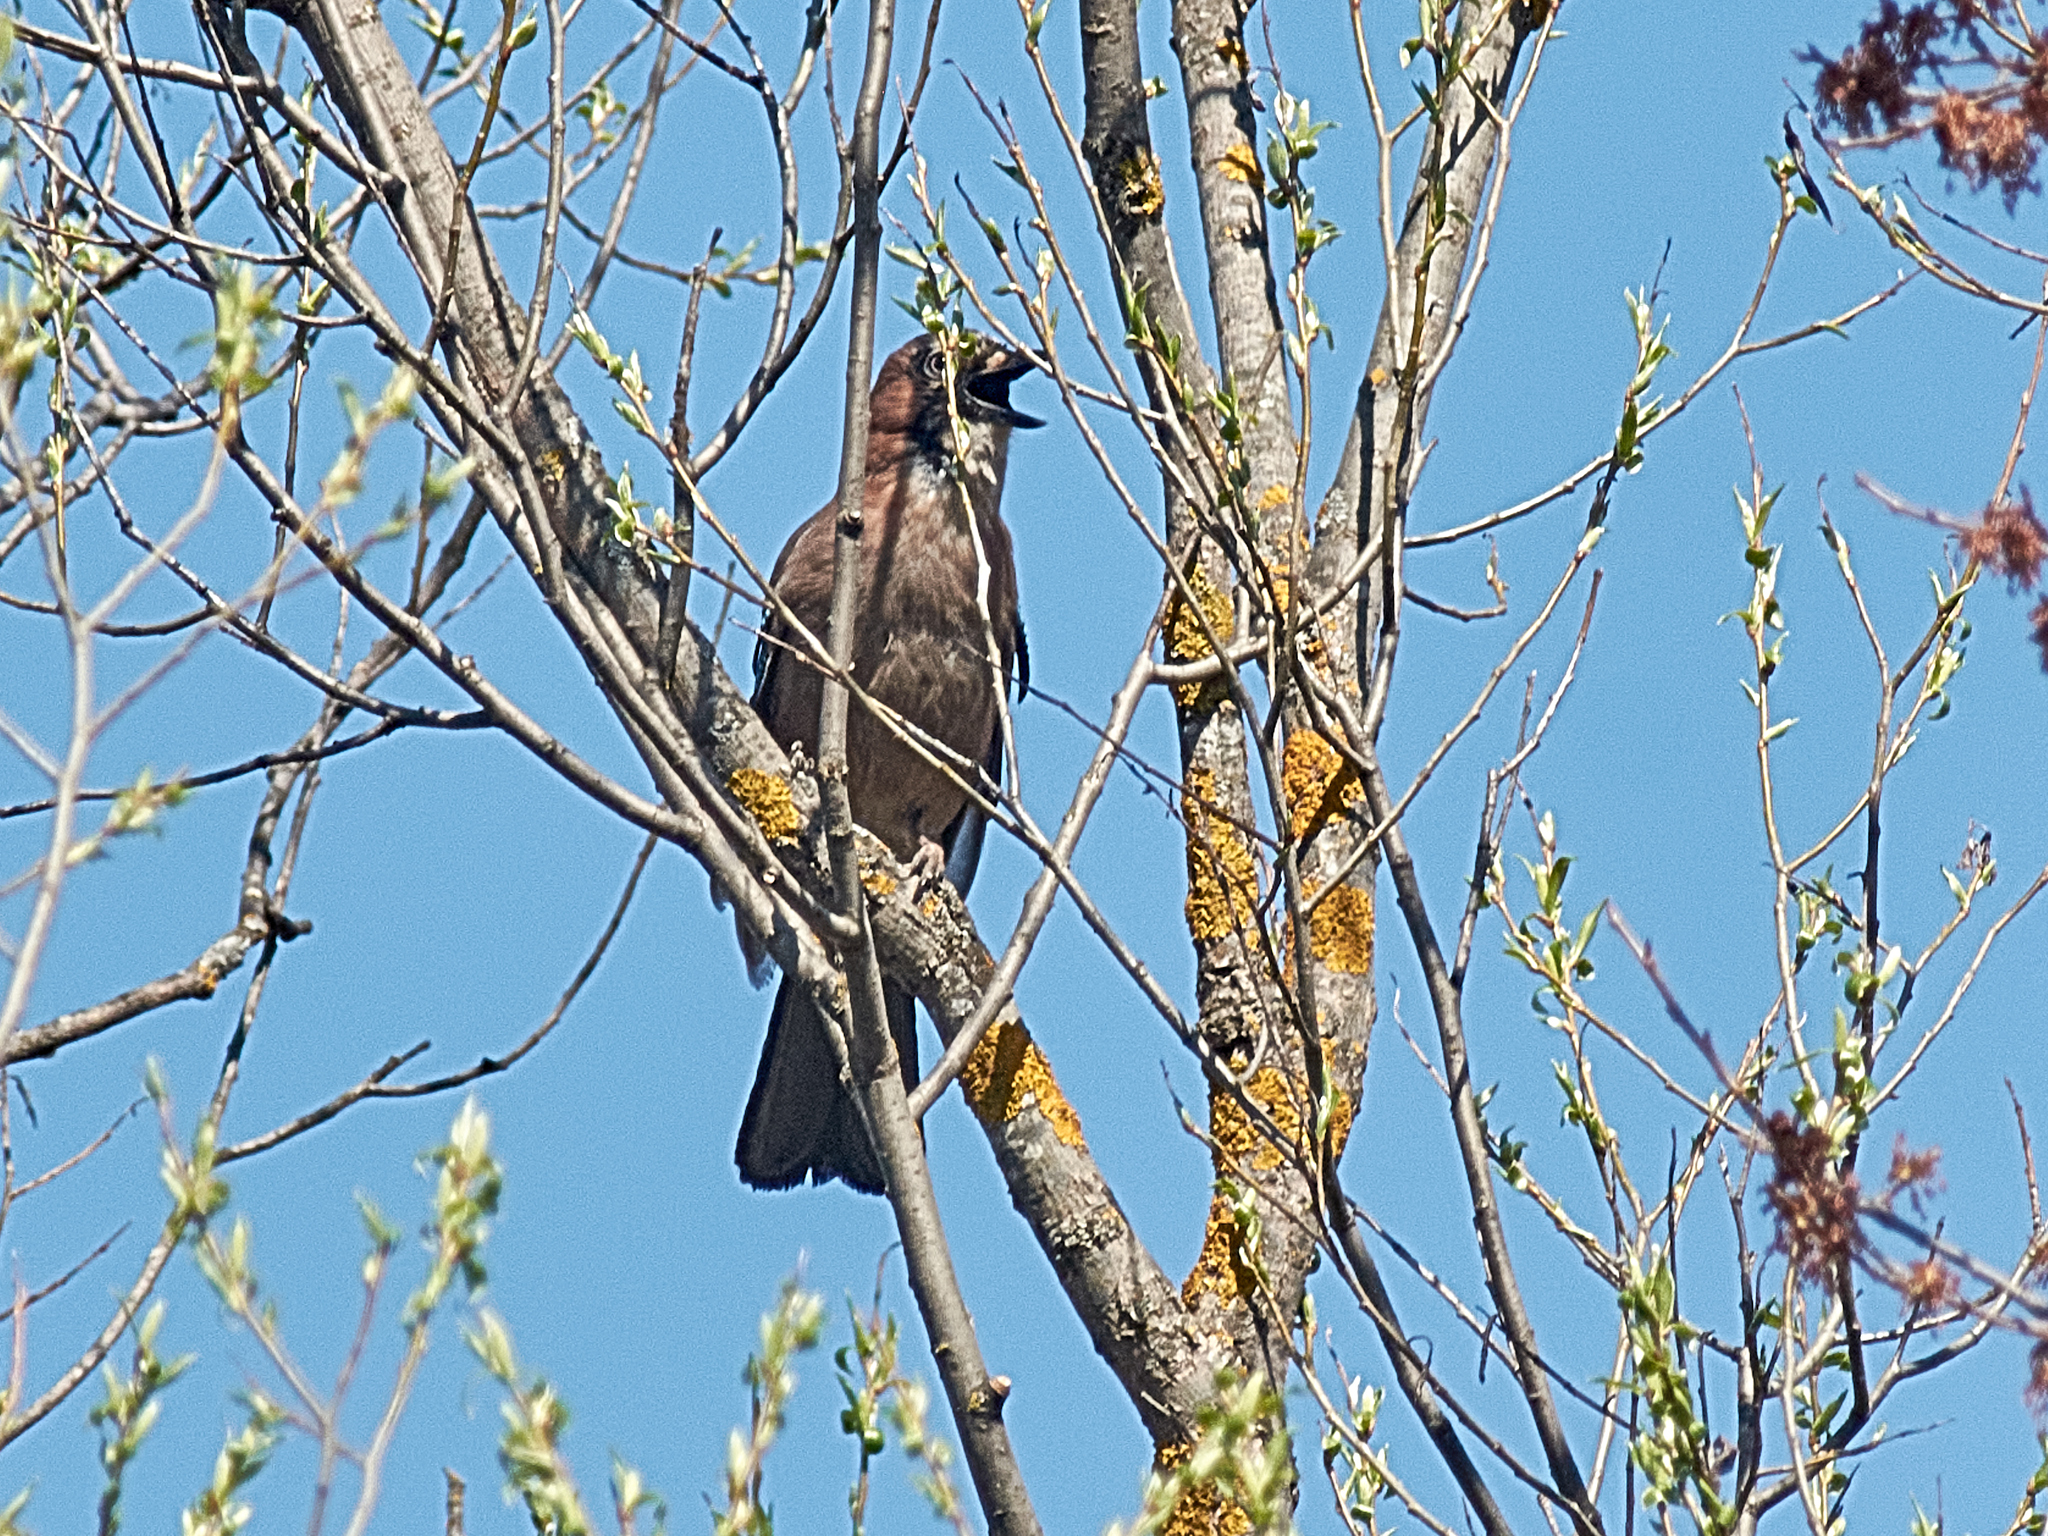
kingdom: Animalia
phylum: Chordata
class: Aves
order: Passeriformes
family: Corvidae
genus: Garrulus
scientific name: Garrulus glandarius
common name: Eurasian jay
